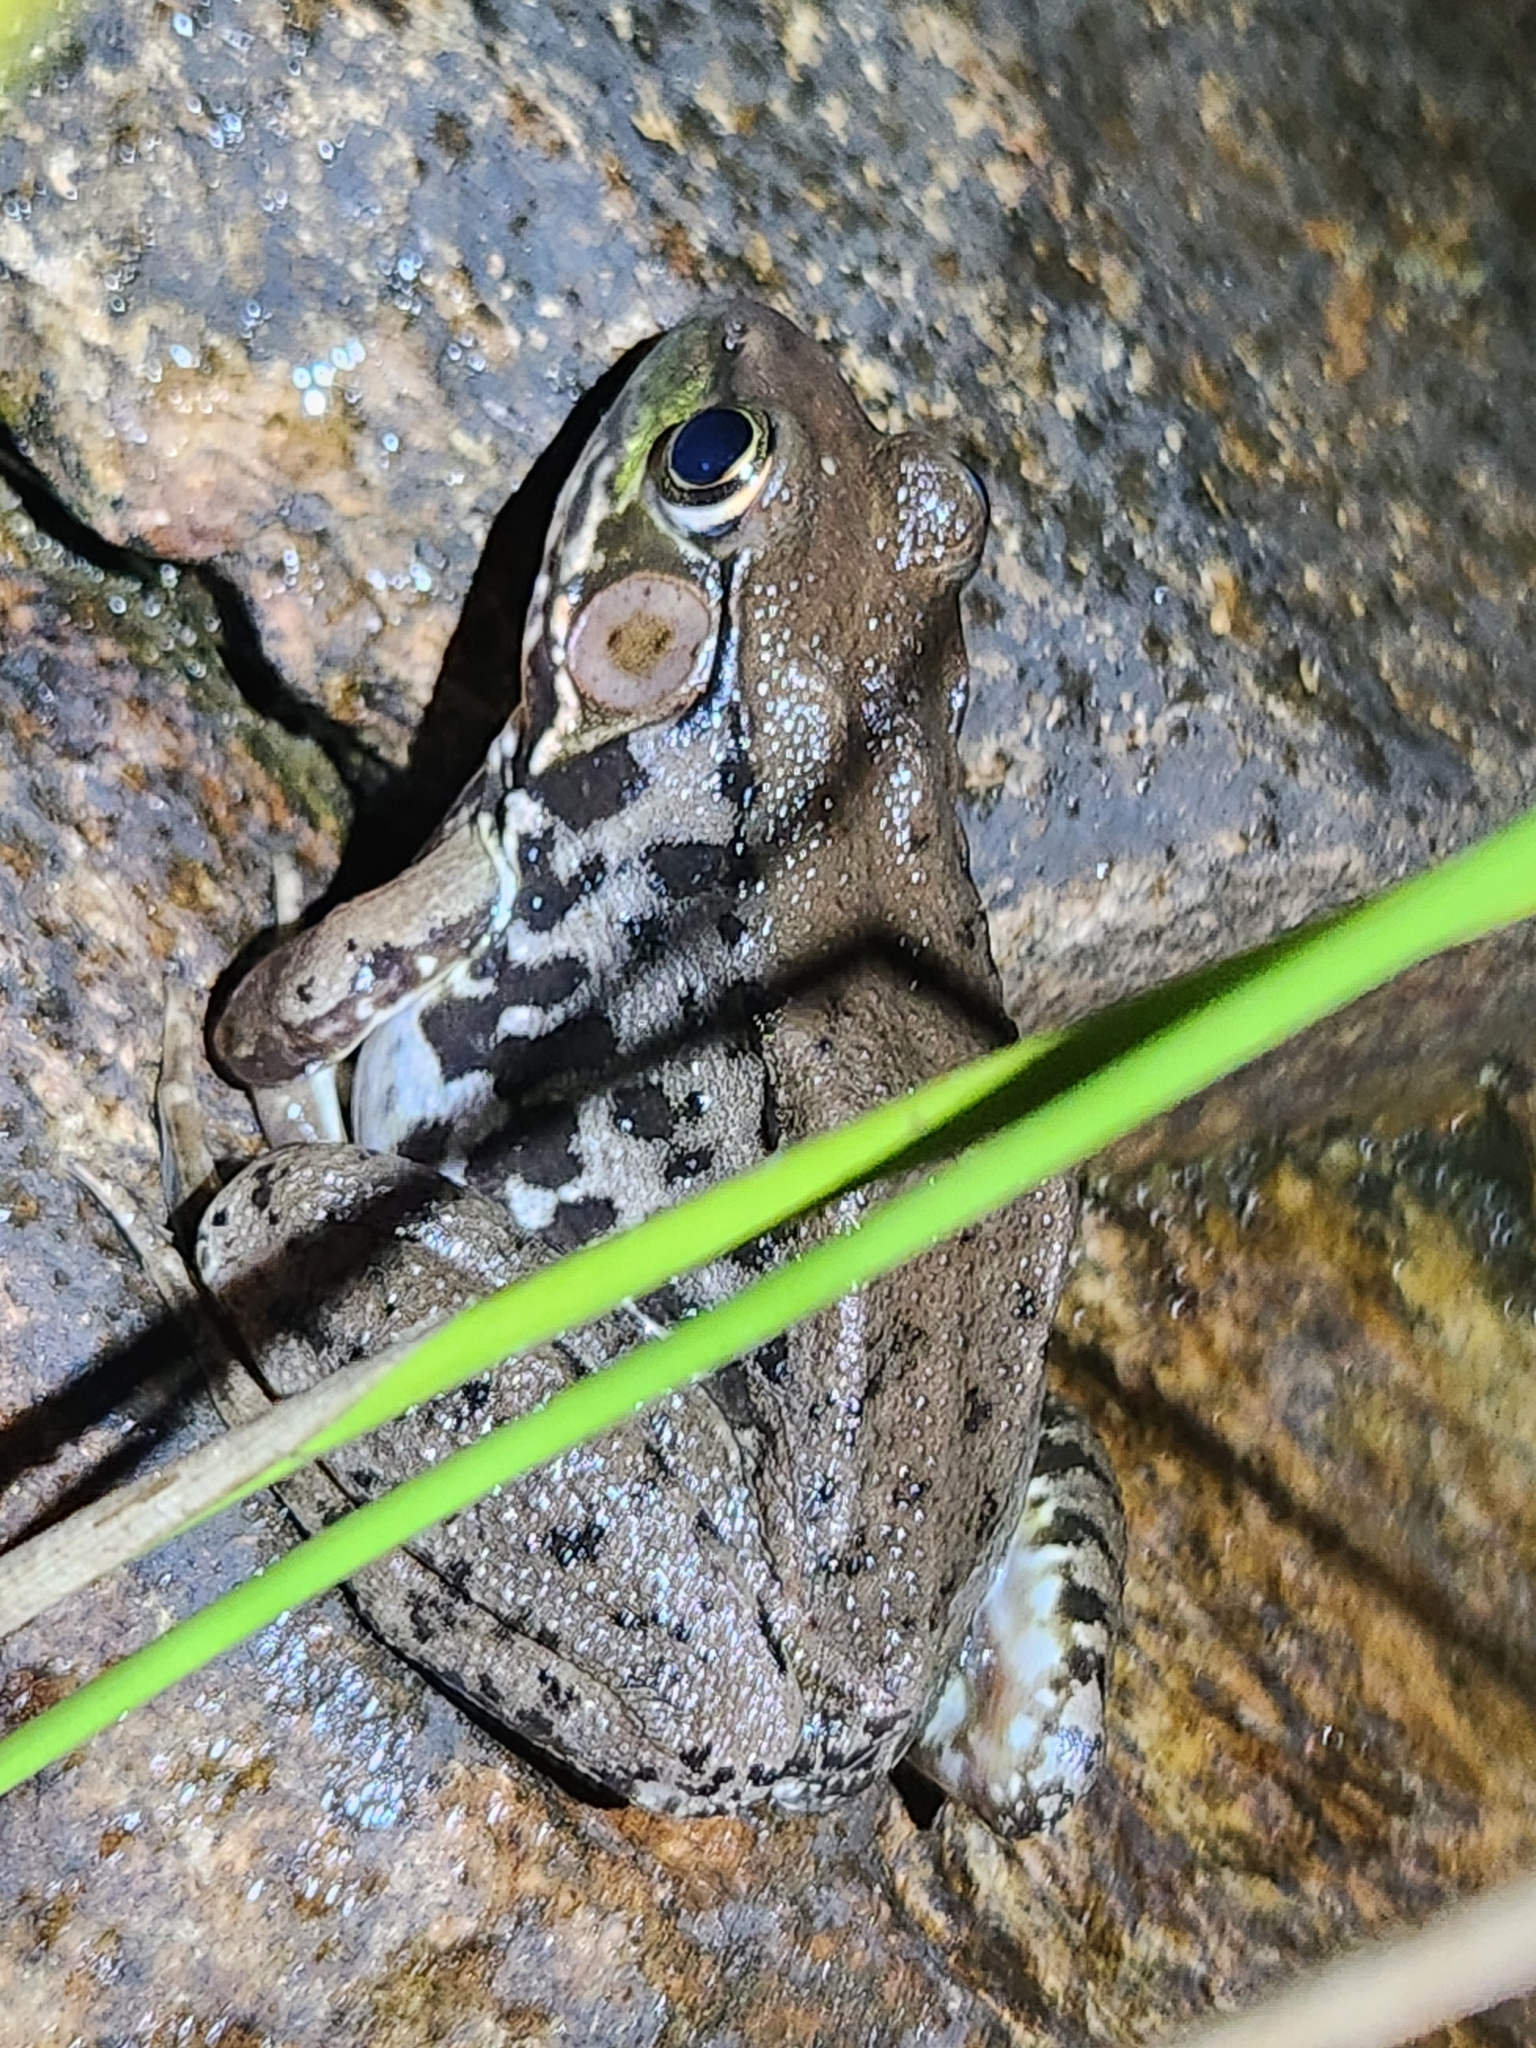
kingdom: Animalia
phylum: Chordata
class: Amphibia
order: Anura
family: Ranidae
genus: Lithobates
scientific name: Lithobates clamitans
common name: Green frog
